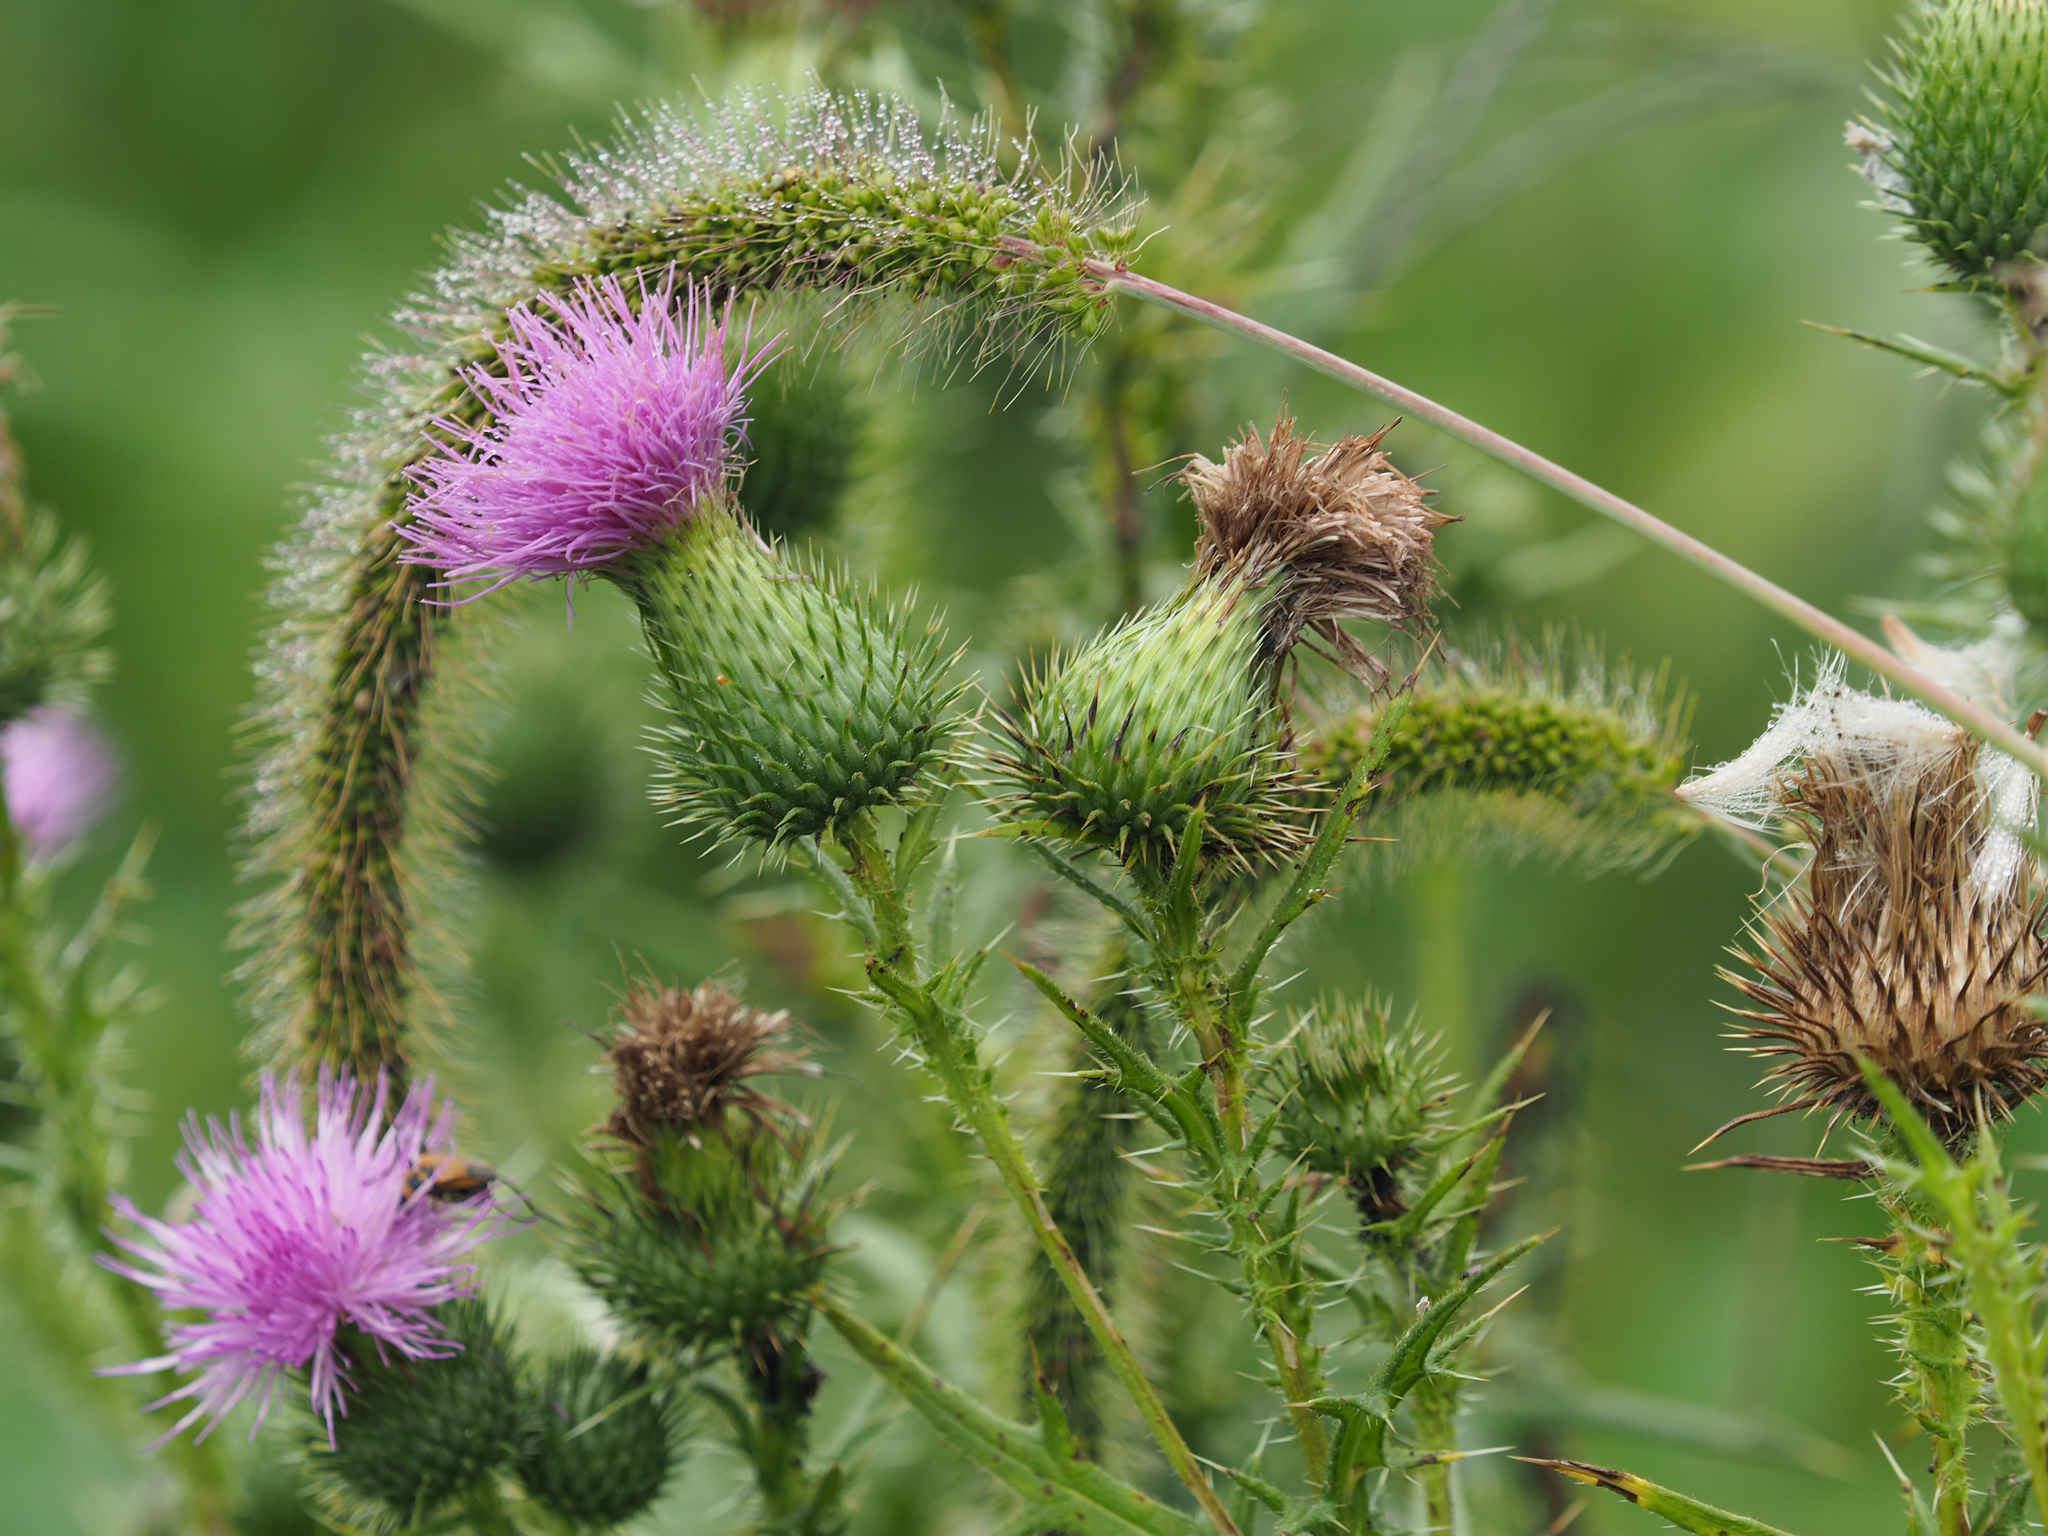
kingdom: Plantae
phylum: Tracheophyta
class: Magnoliopsida
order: Asterales
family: Asteraceae
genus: Cirsium
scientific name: Cirsium vulgare
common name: Bull thistle
